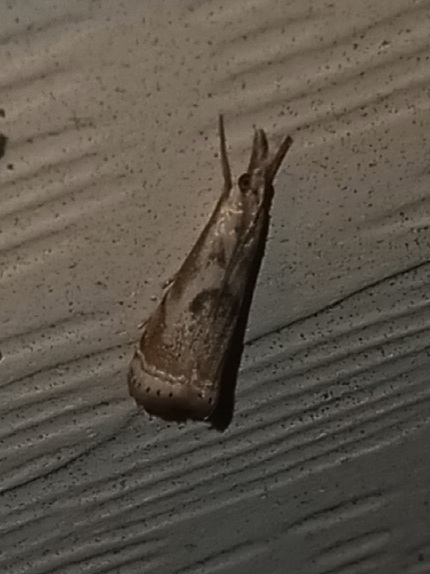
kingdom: Animalia
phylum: Arthropoda
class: Insecta
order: Lepidoptera
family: Crambidae
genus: Microcrambus
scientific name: Microcrambus elegans
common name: Elegant grass-veneer
